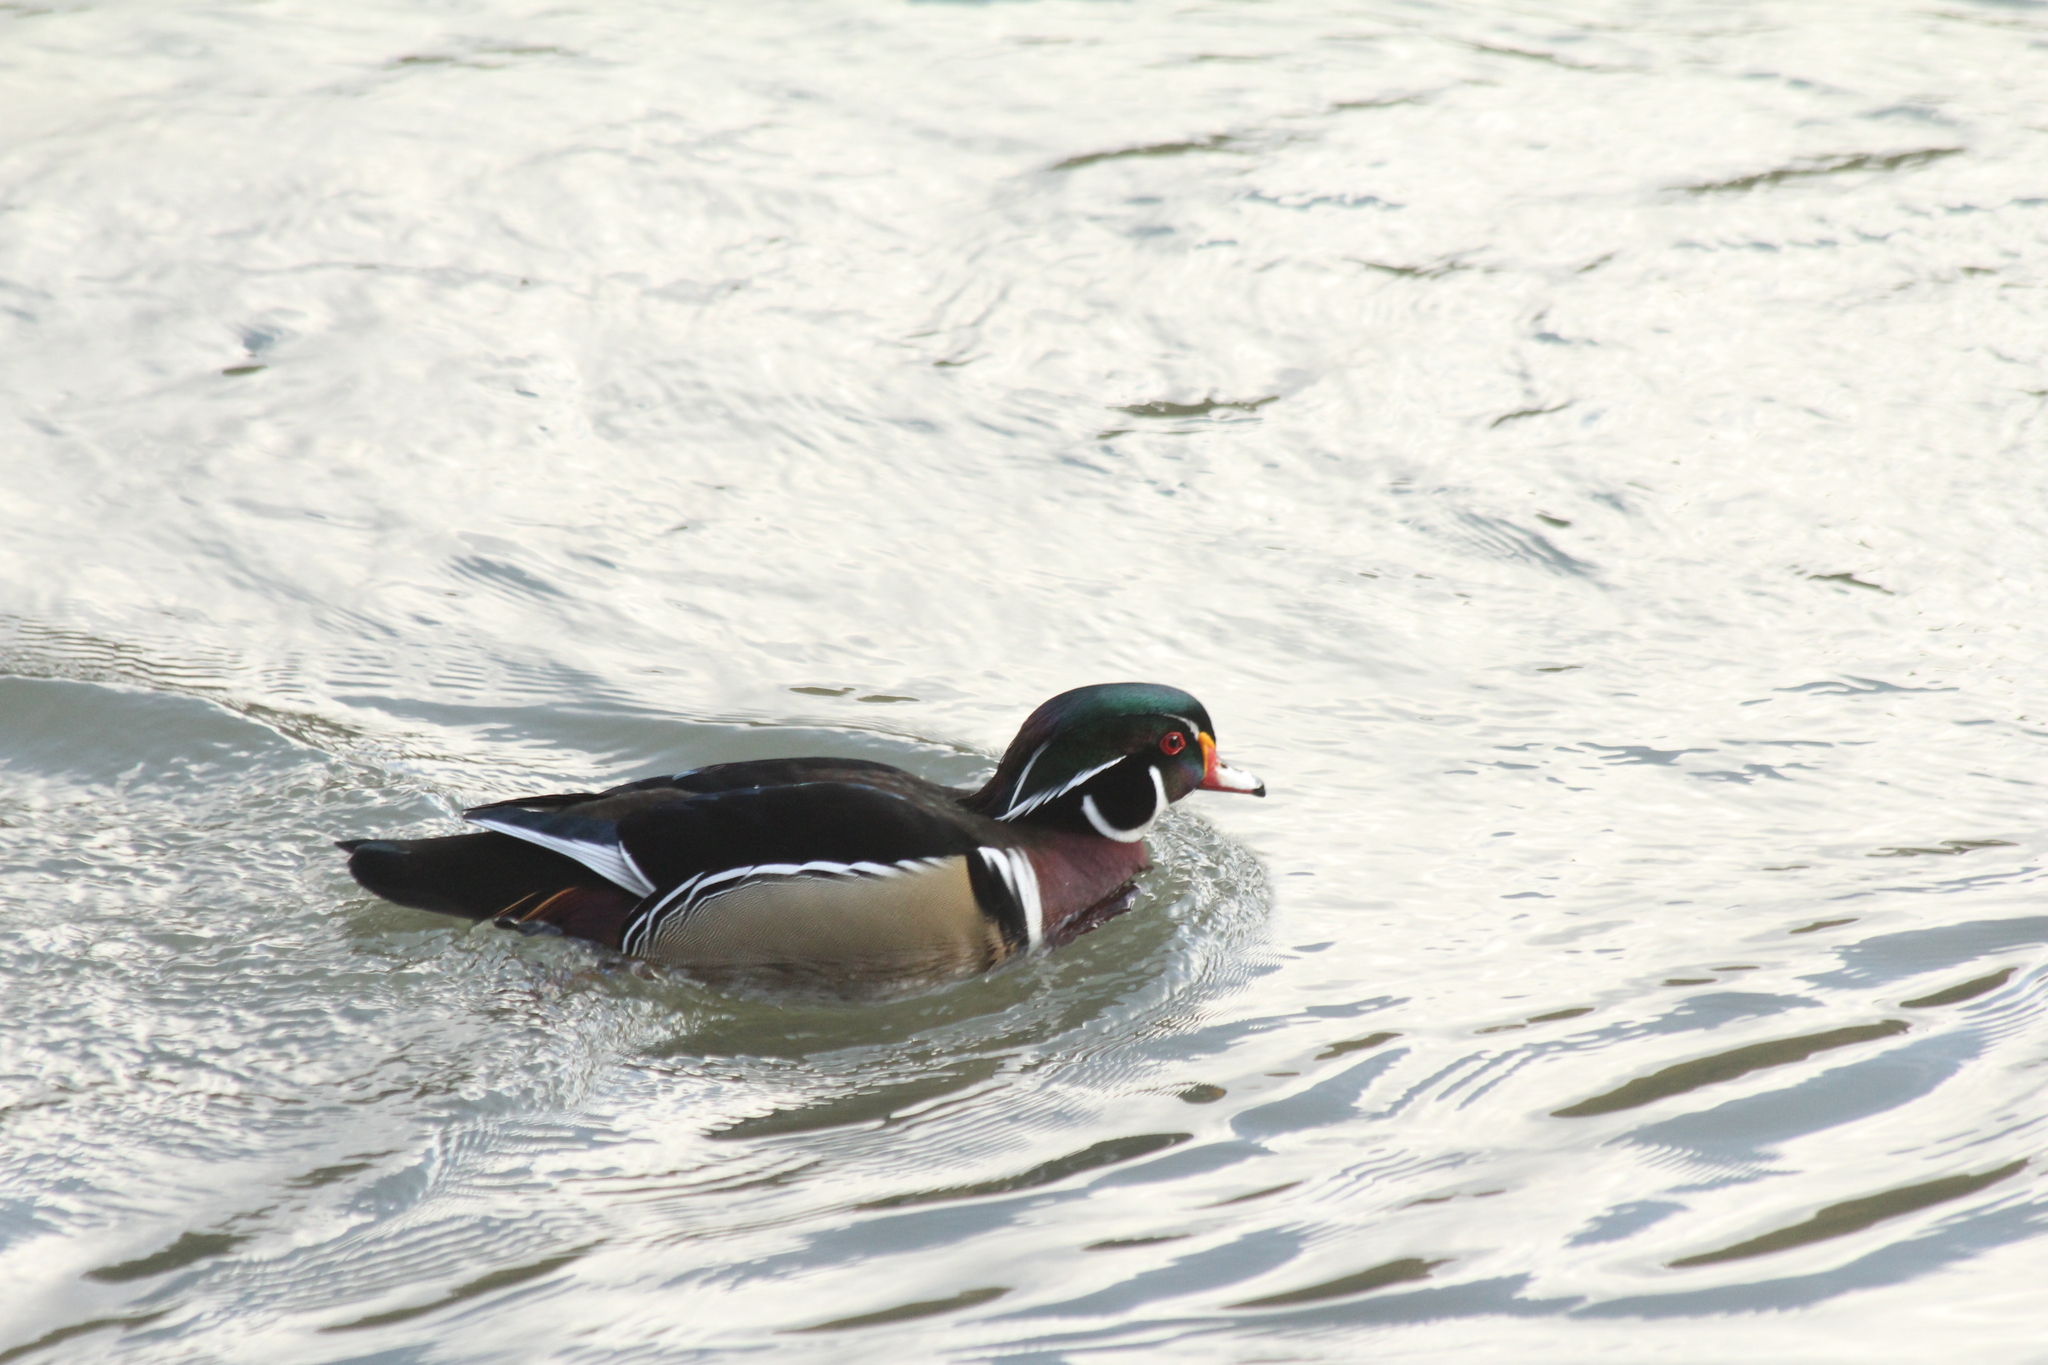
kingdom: Animalia
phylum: Chordata
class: Aves
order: Anseriformes
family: Anatidae
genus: Aix
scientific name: Aix sponsa
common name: Wood duck
